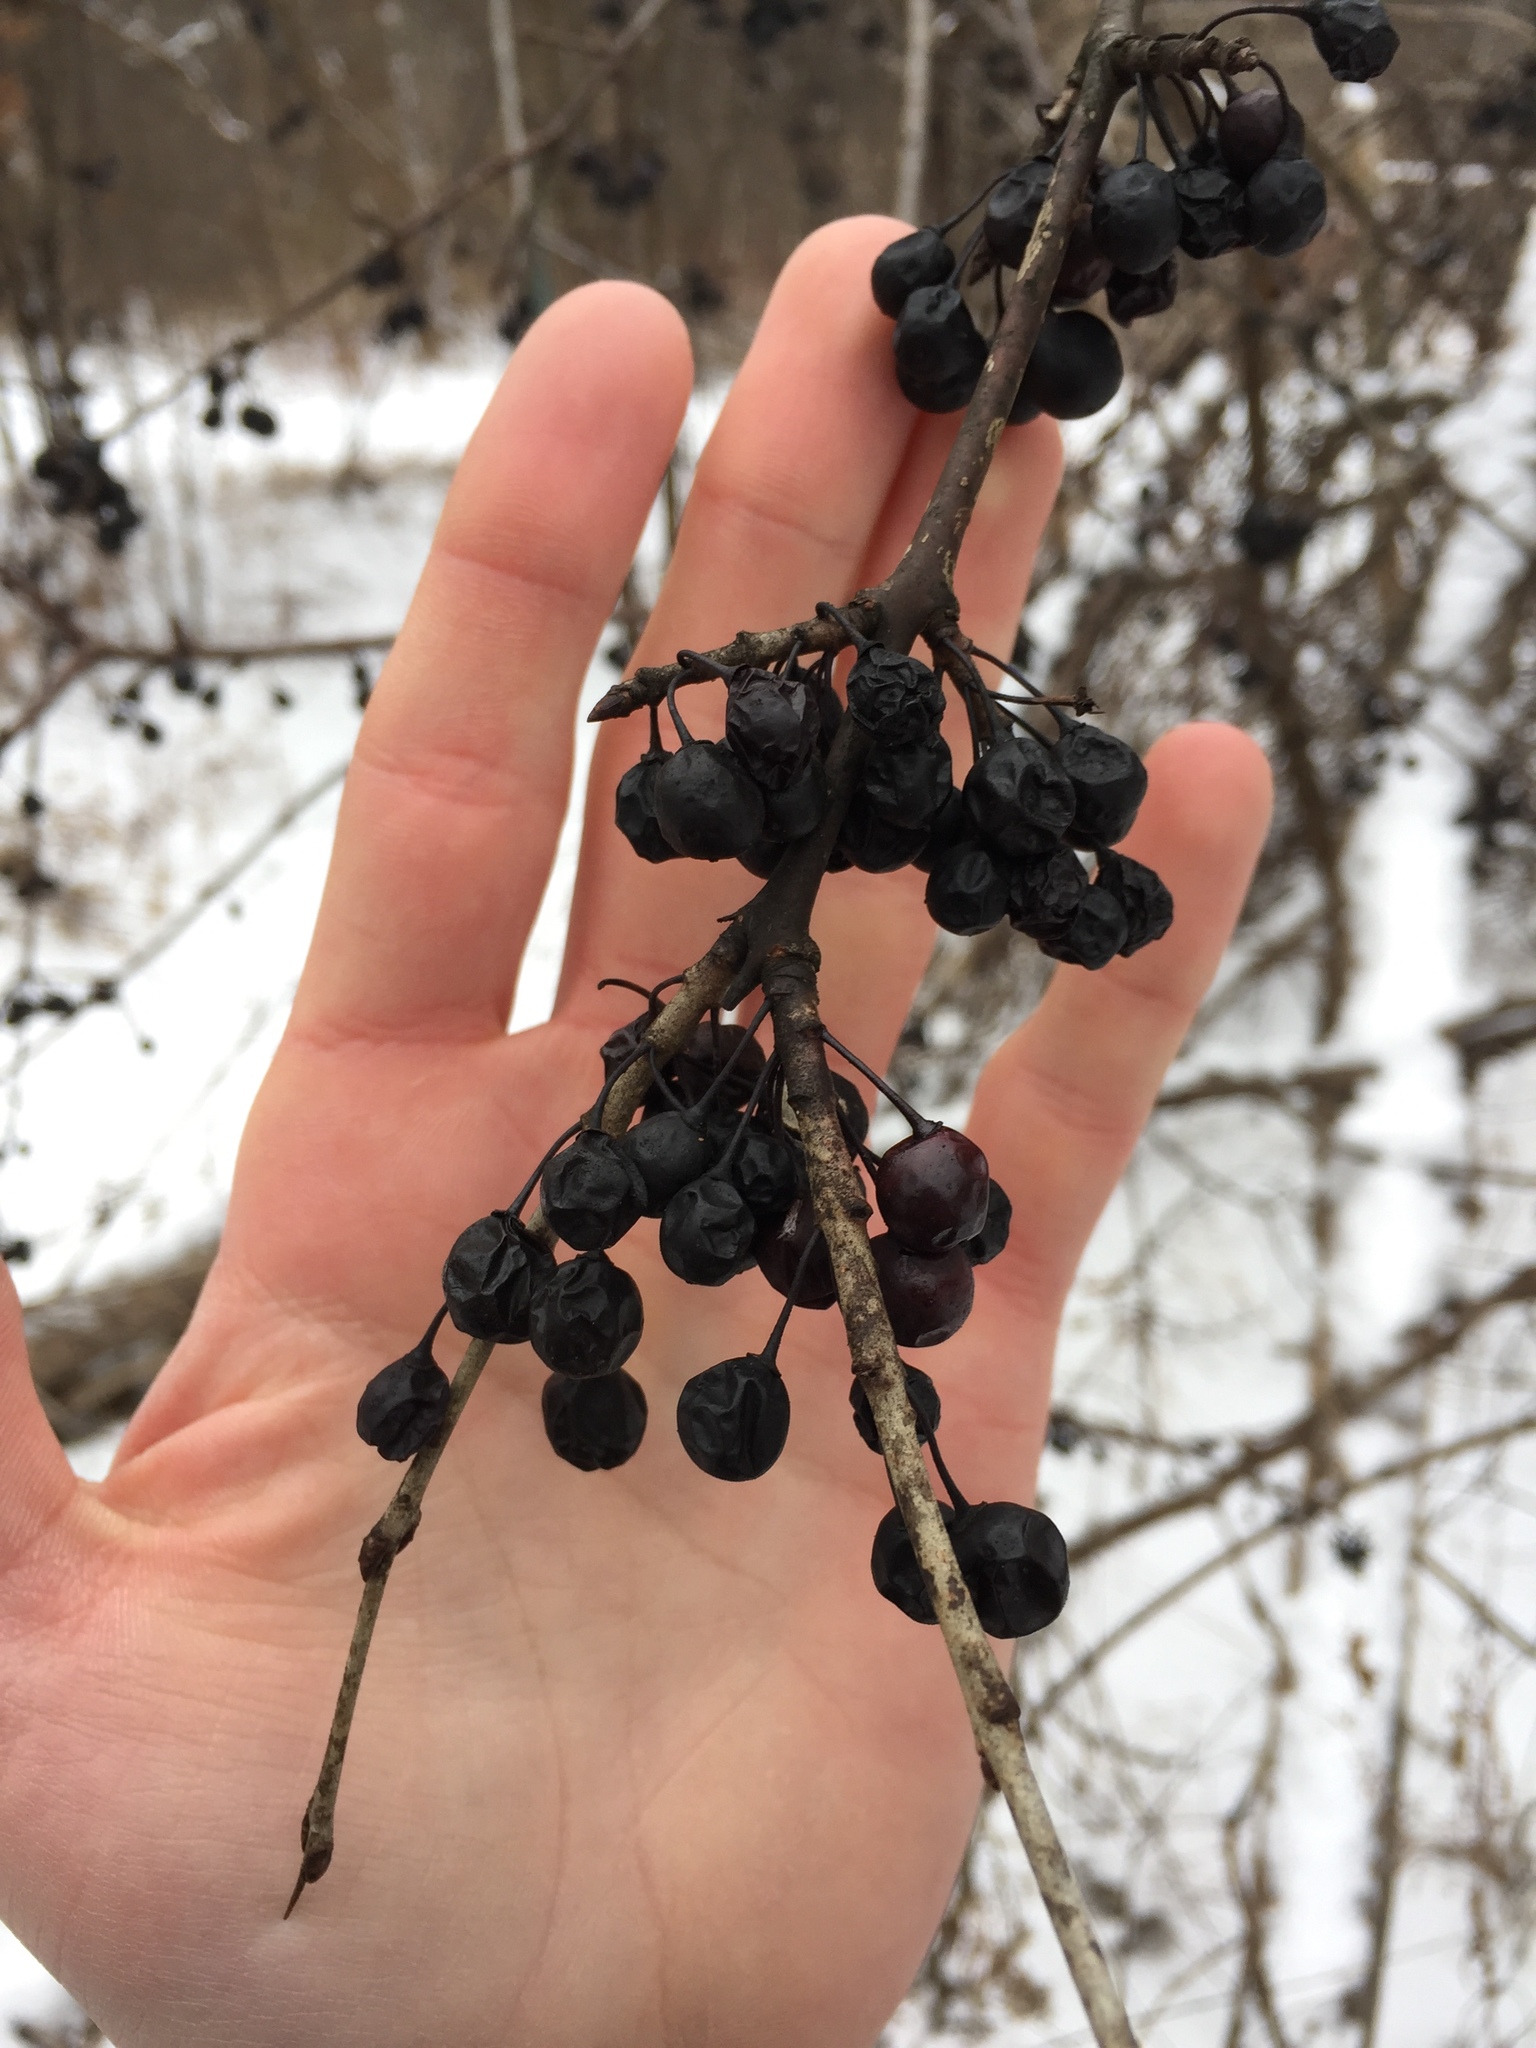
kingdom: Plantae
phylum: Tracheophyta
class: Magnoliopsida
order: Rosales
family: Rhamnaceae
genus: Rhamnus
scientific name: Rhamnus cathartica
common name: Common buckthorn
